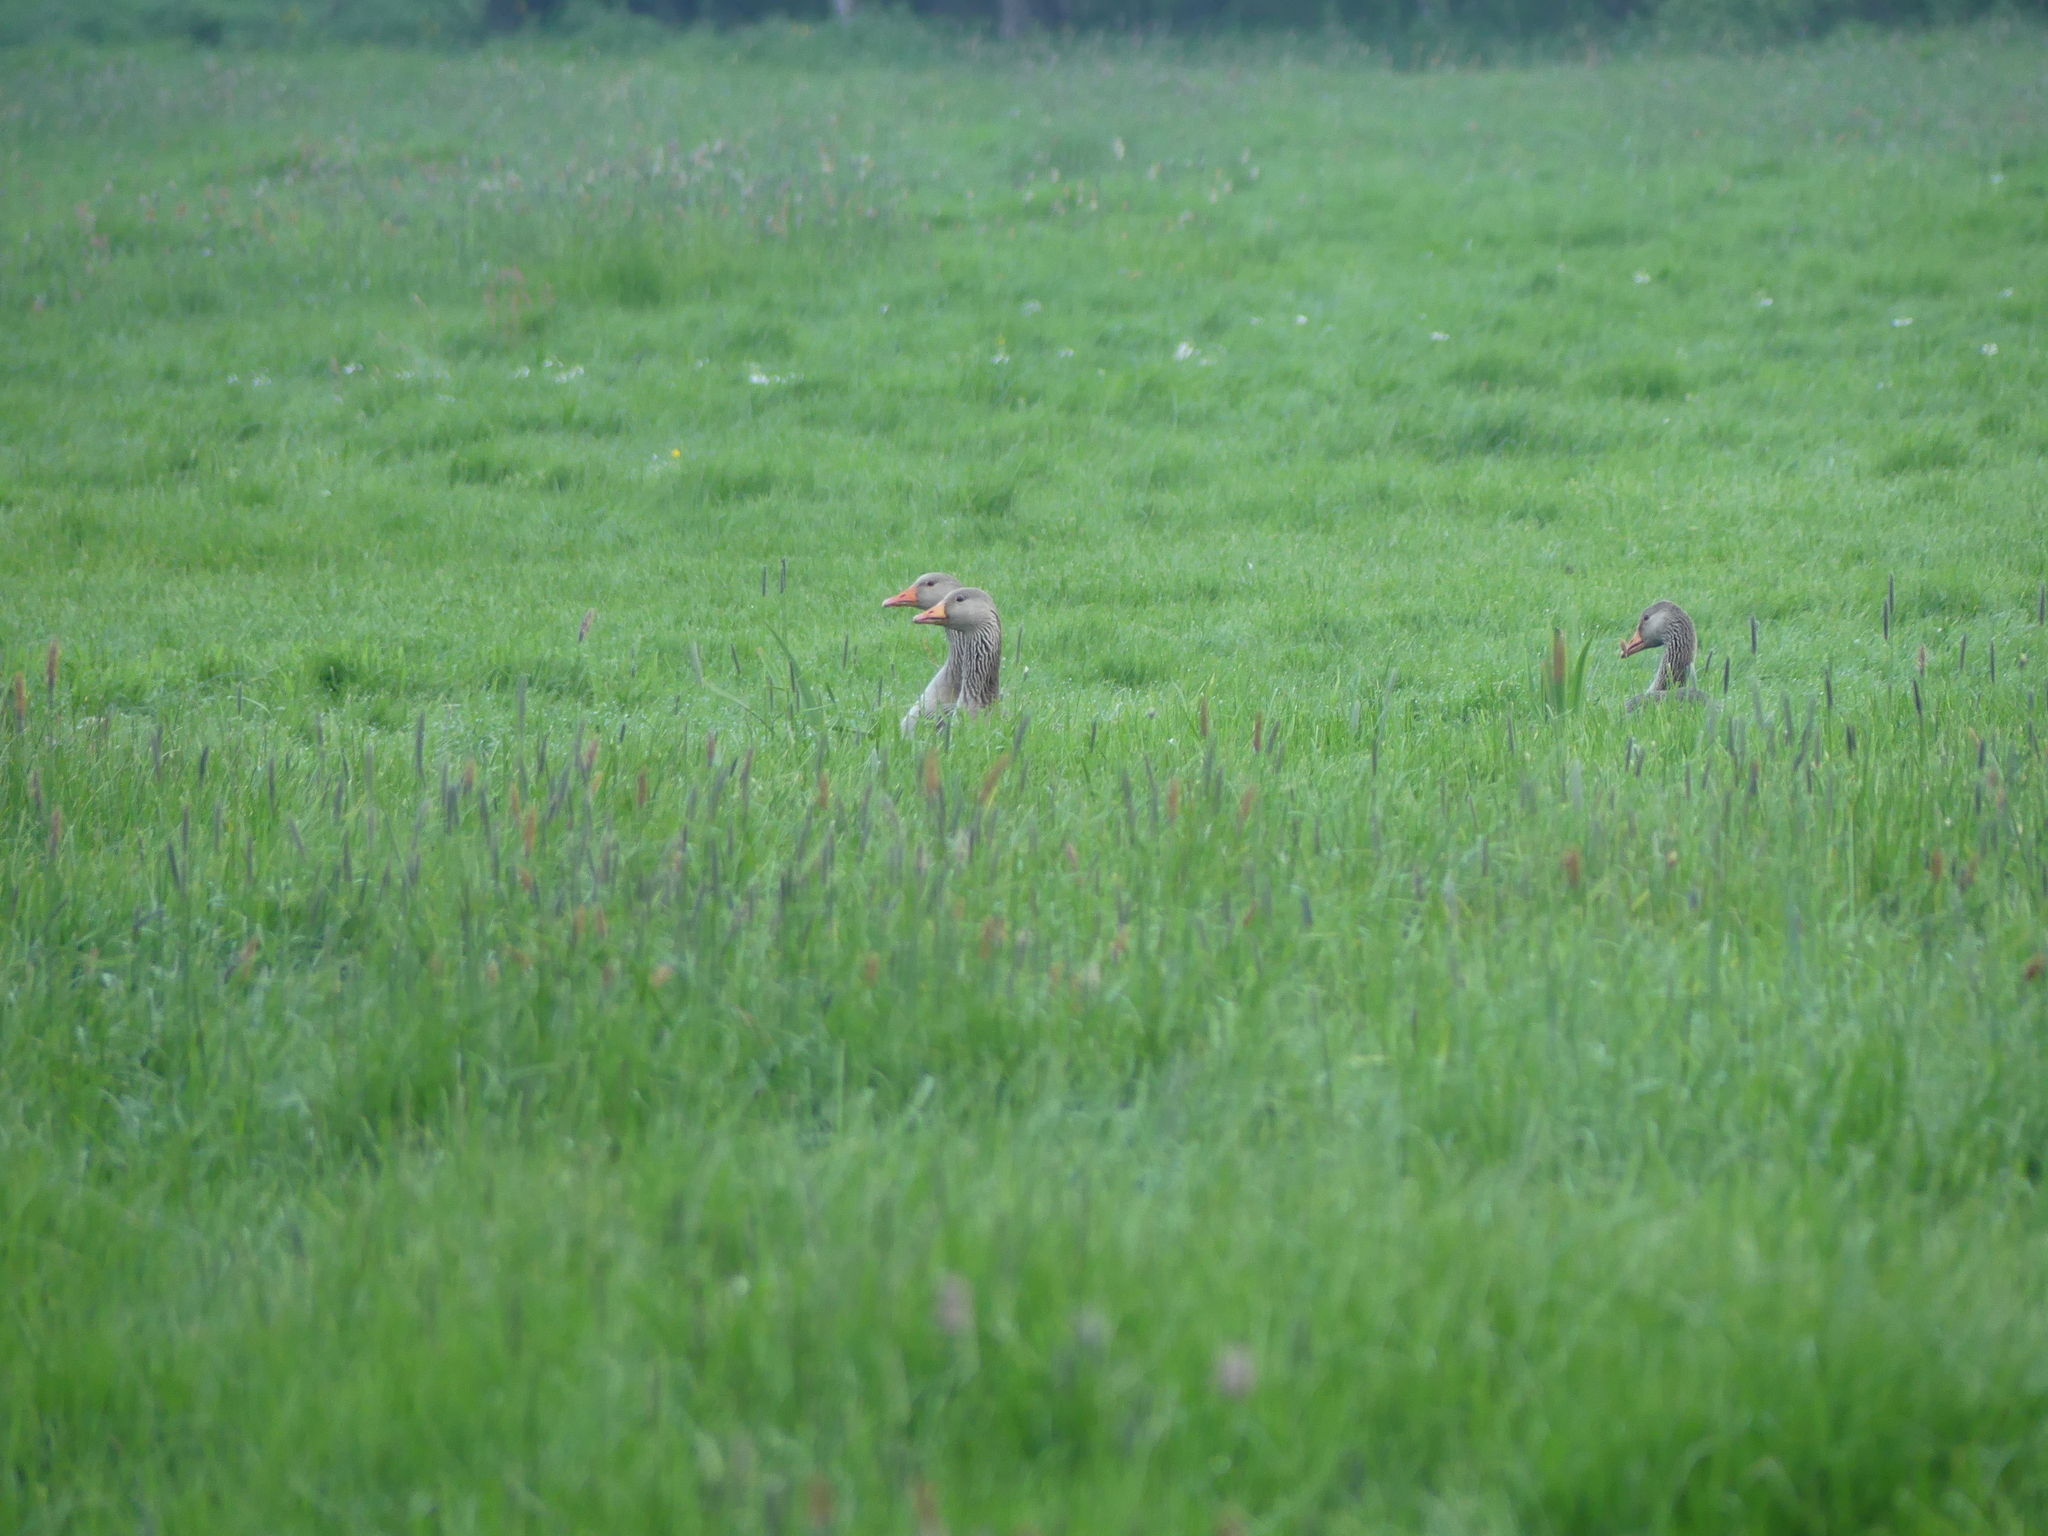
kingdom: Animalia
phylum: Chordata
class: Aves
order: Anseriformes
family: Anatidae
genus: Anser
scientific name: Anser anser
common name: Greylag goose
